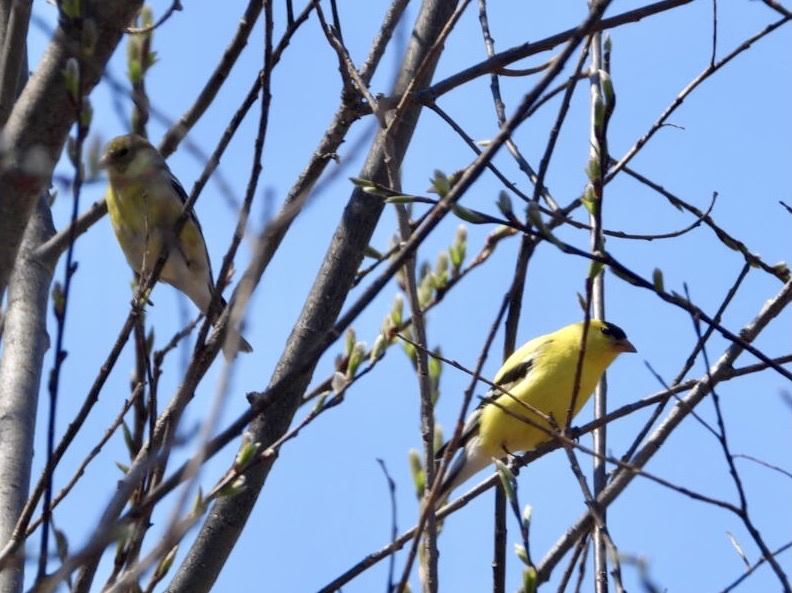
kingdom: Animalia
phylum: Chordata
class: Aves
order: Passeriformes
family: Fringillidae
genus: Spinus
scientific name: Spinus tristis
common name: American goldfinch
